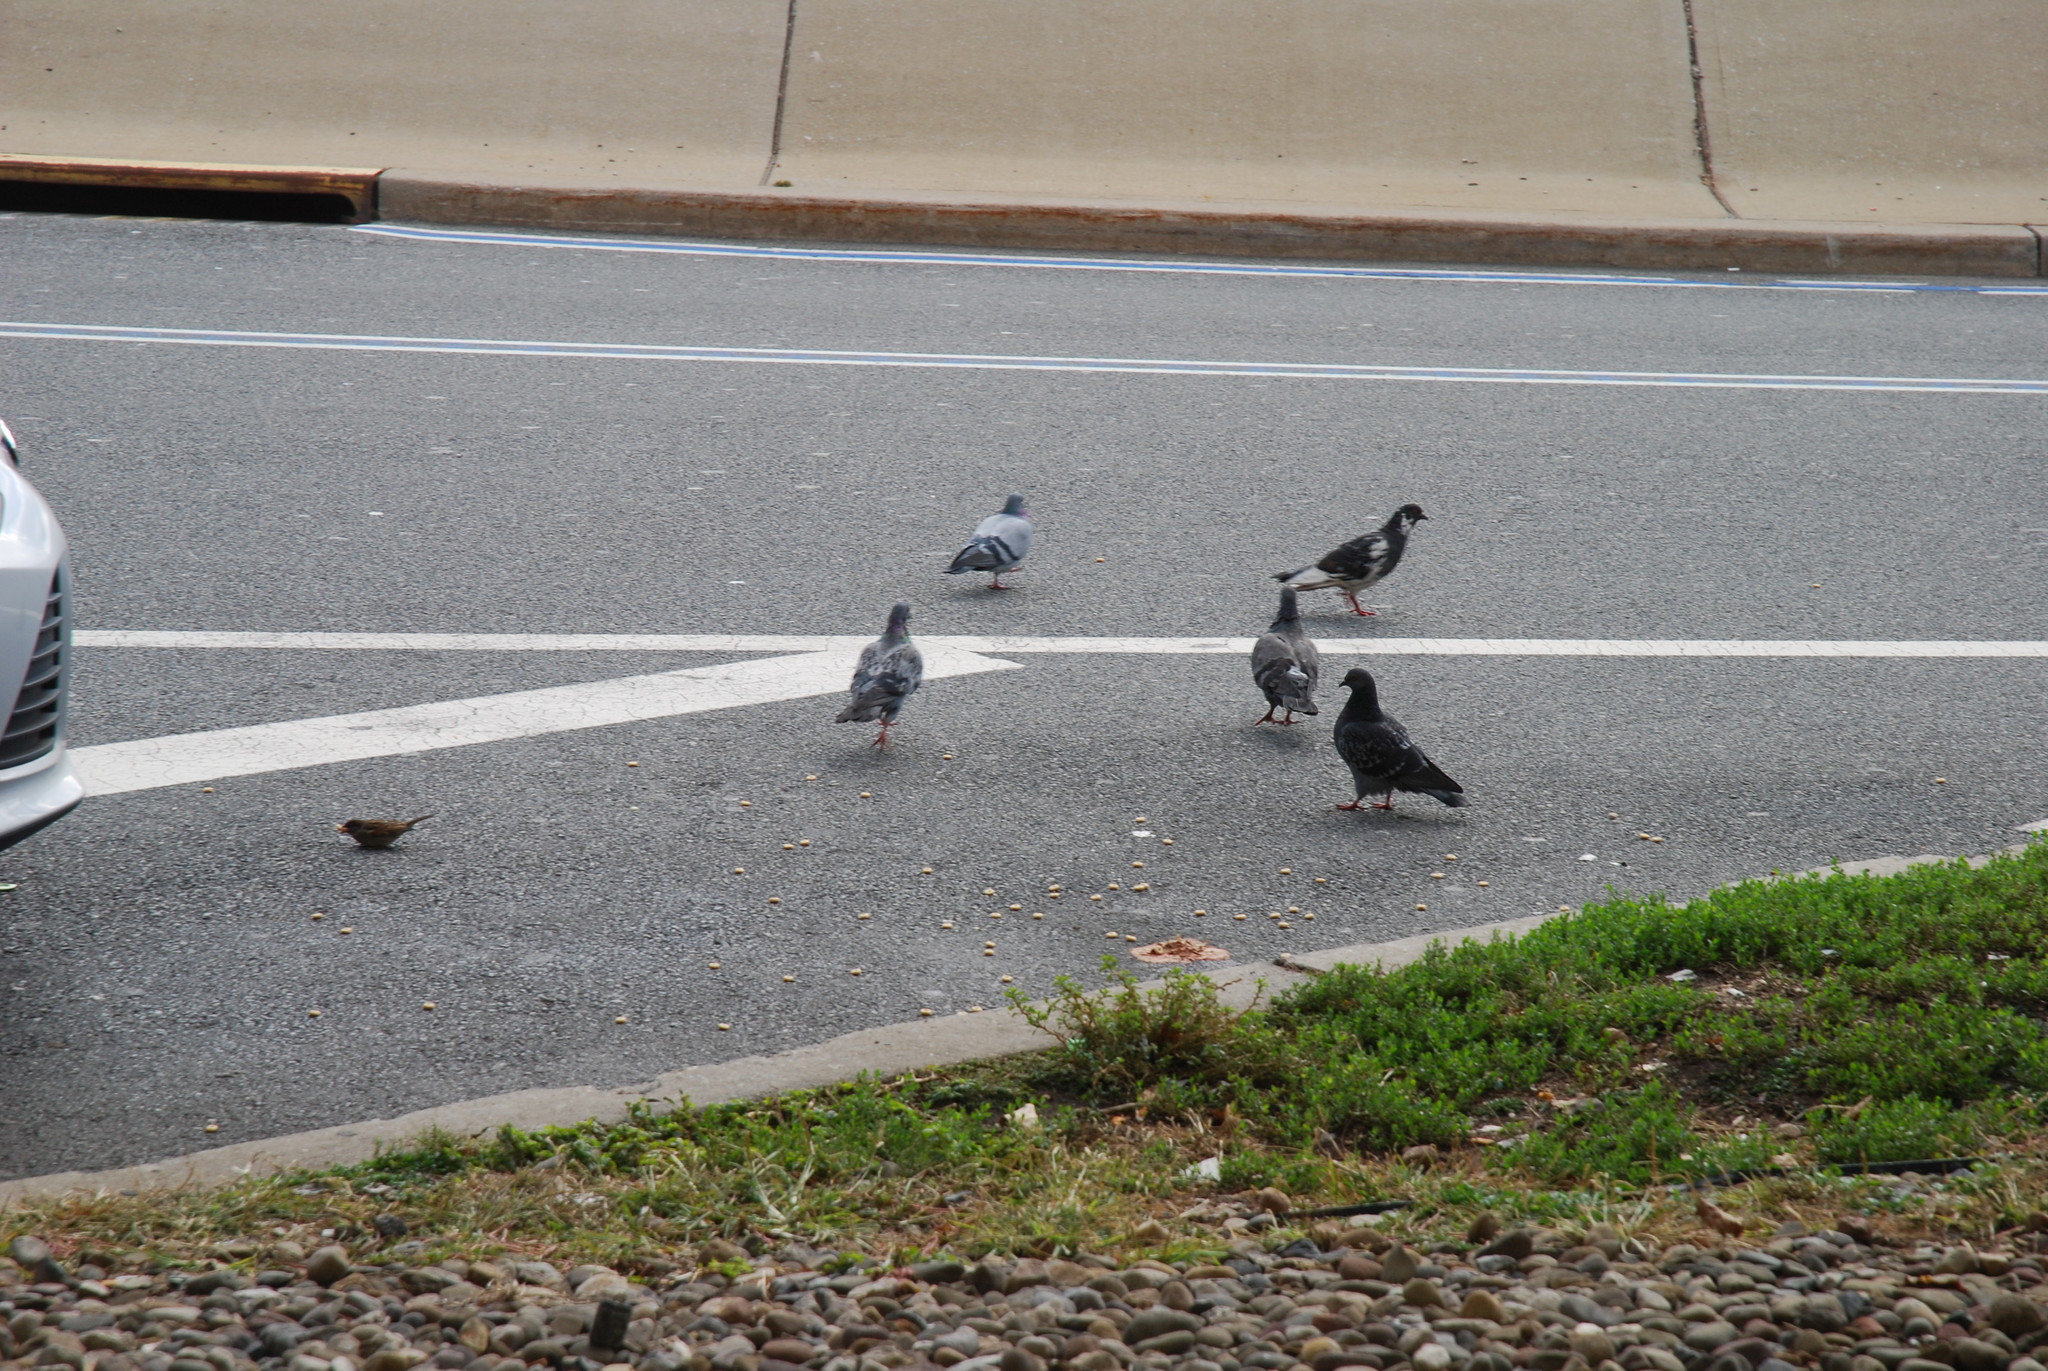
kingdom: Animalia
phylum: Chordata
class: Aves
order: Columbiformes
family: Columbidae
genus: Columba
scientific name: Columba livia
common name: Rock pigeon
